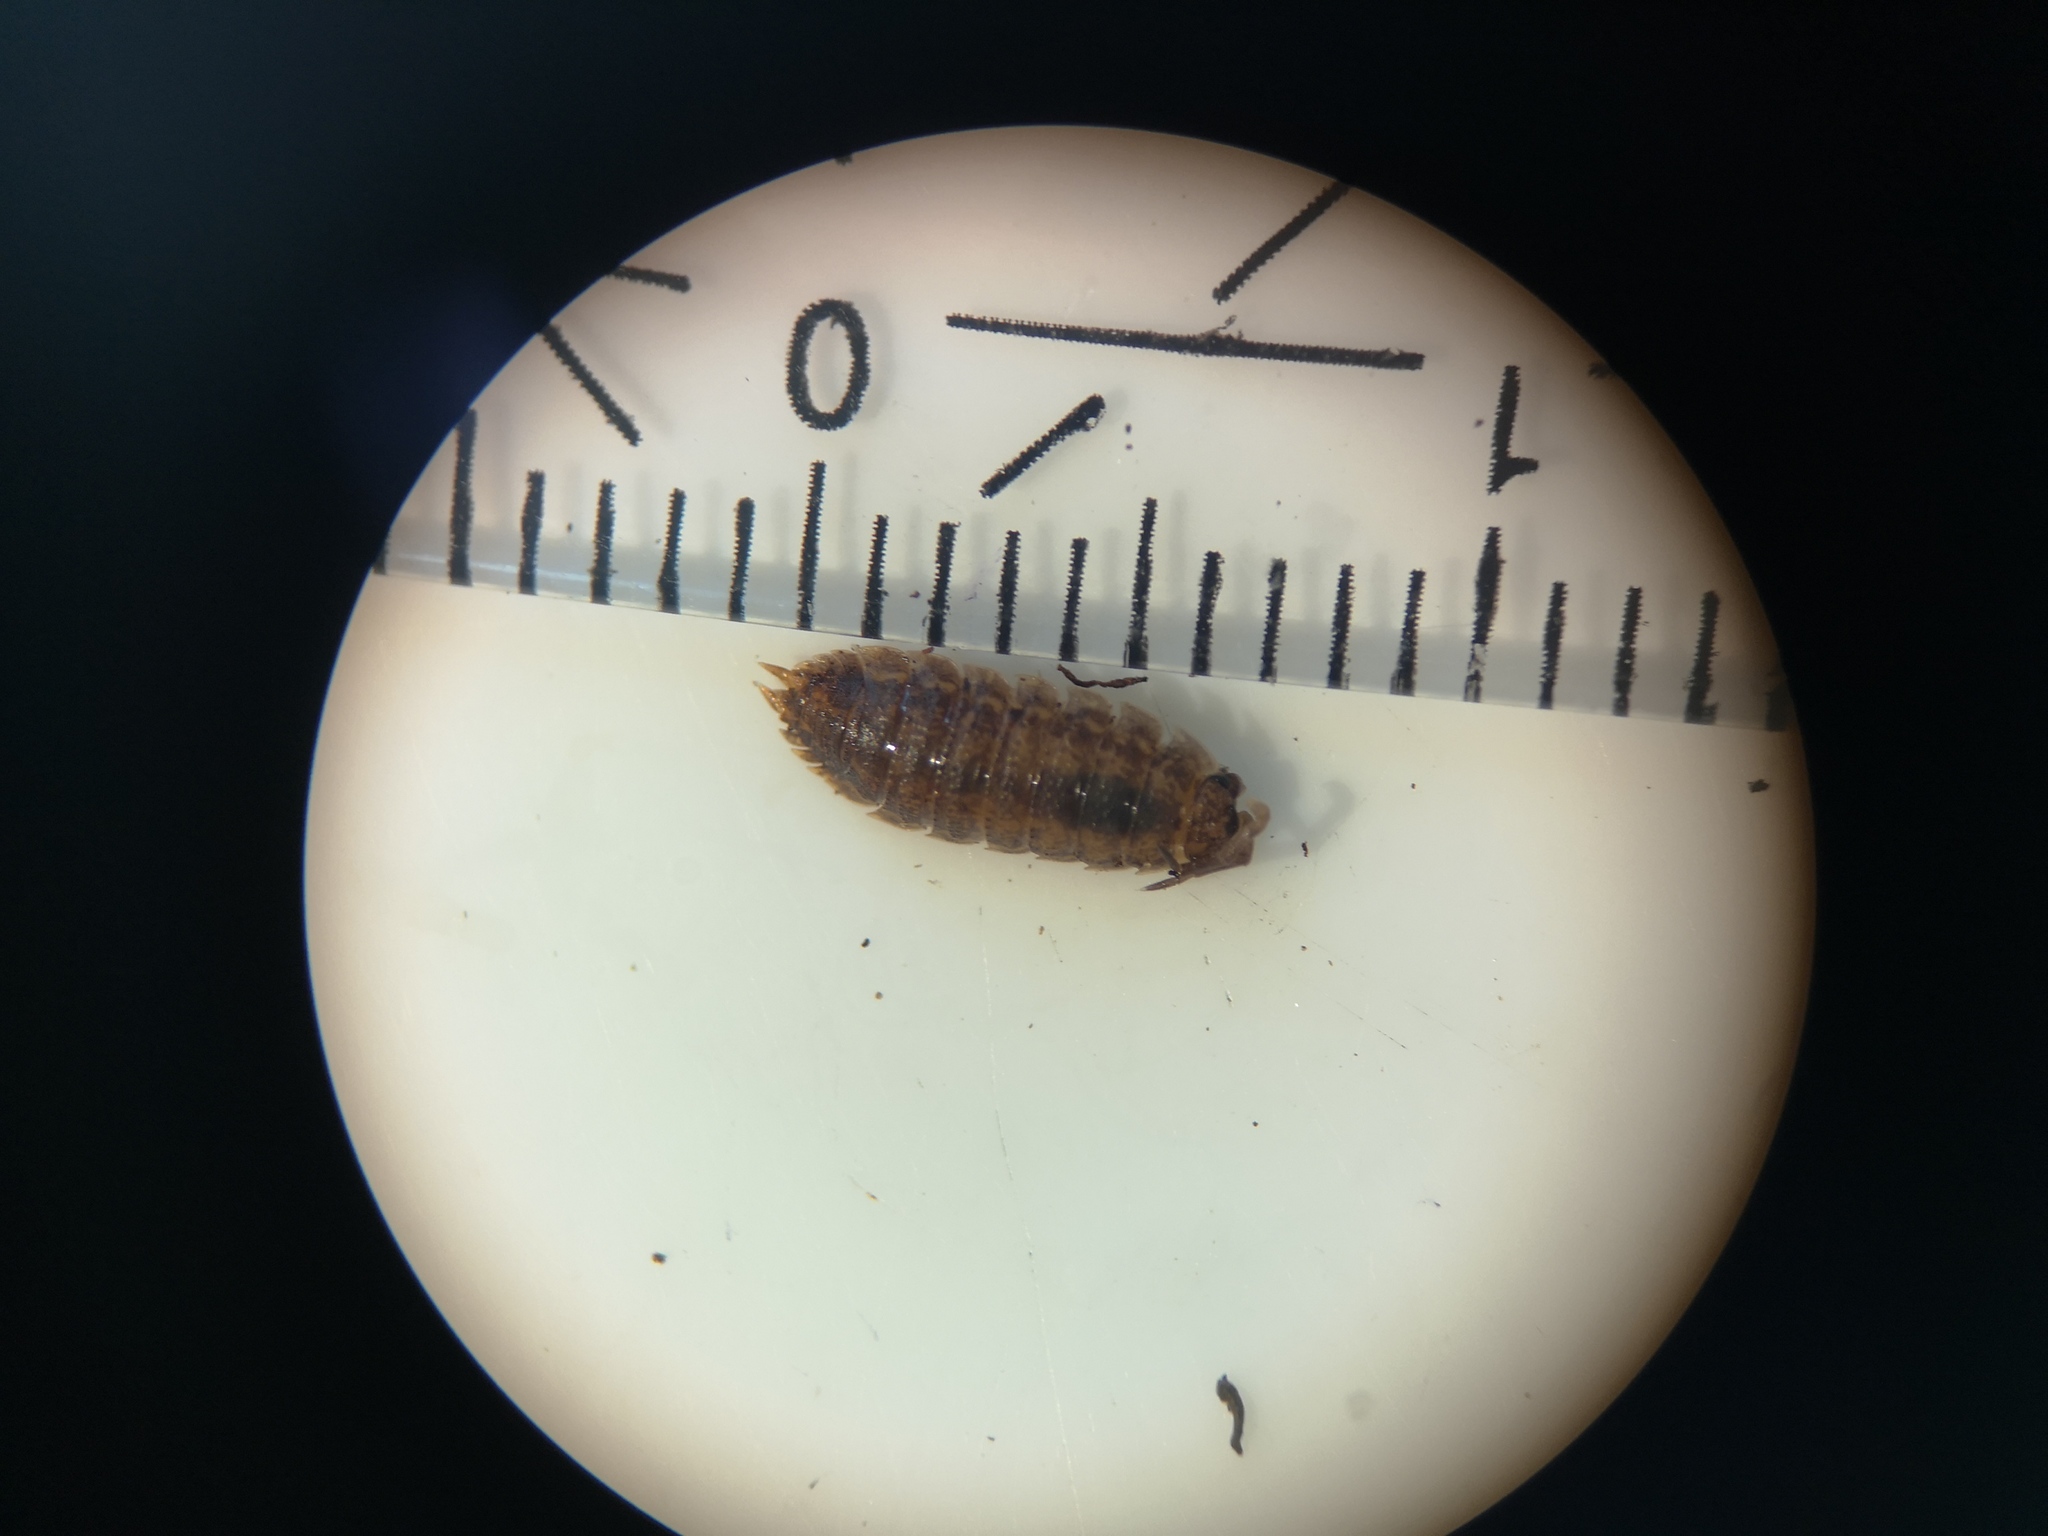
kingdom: Animalia
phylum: Arthropoda
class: Malacostraca
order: Isopoda
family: Porcellionidae
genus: Porcellio
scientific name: Porcellio scaber
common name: Common rough woodlouse
